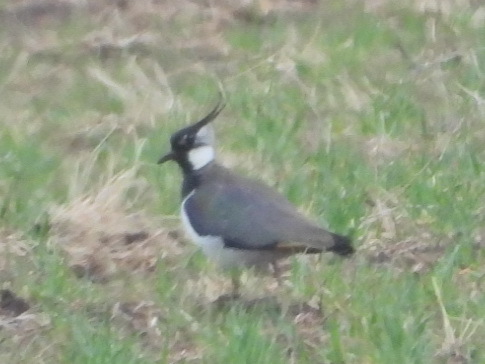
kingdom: Animalia
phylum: Chordata
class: Aves
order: Charadriiformes
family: Charadriidae
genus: Vanellus
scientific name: Vanellus vanellus
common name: Northern lapwing
